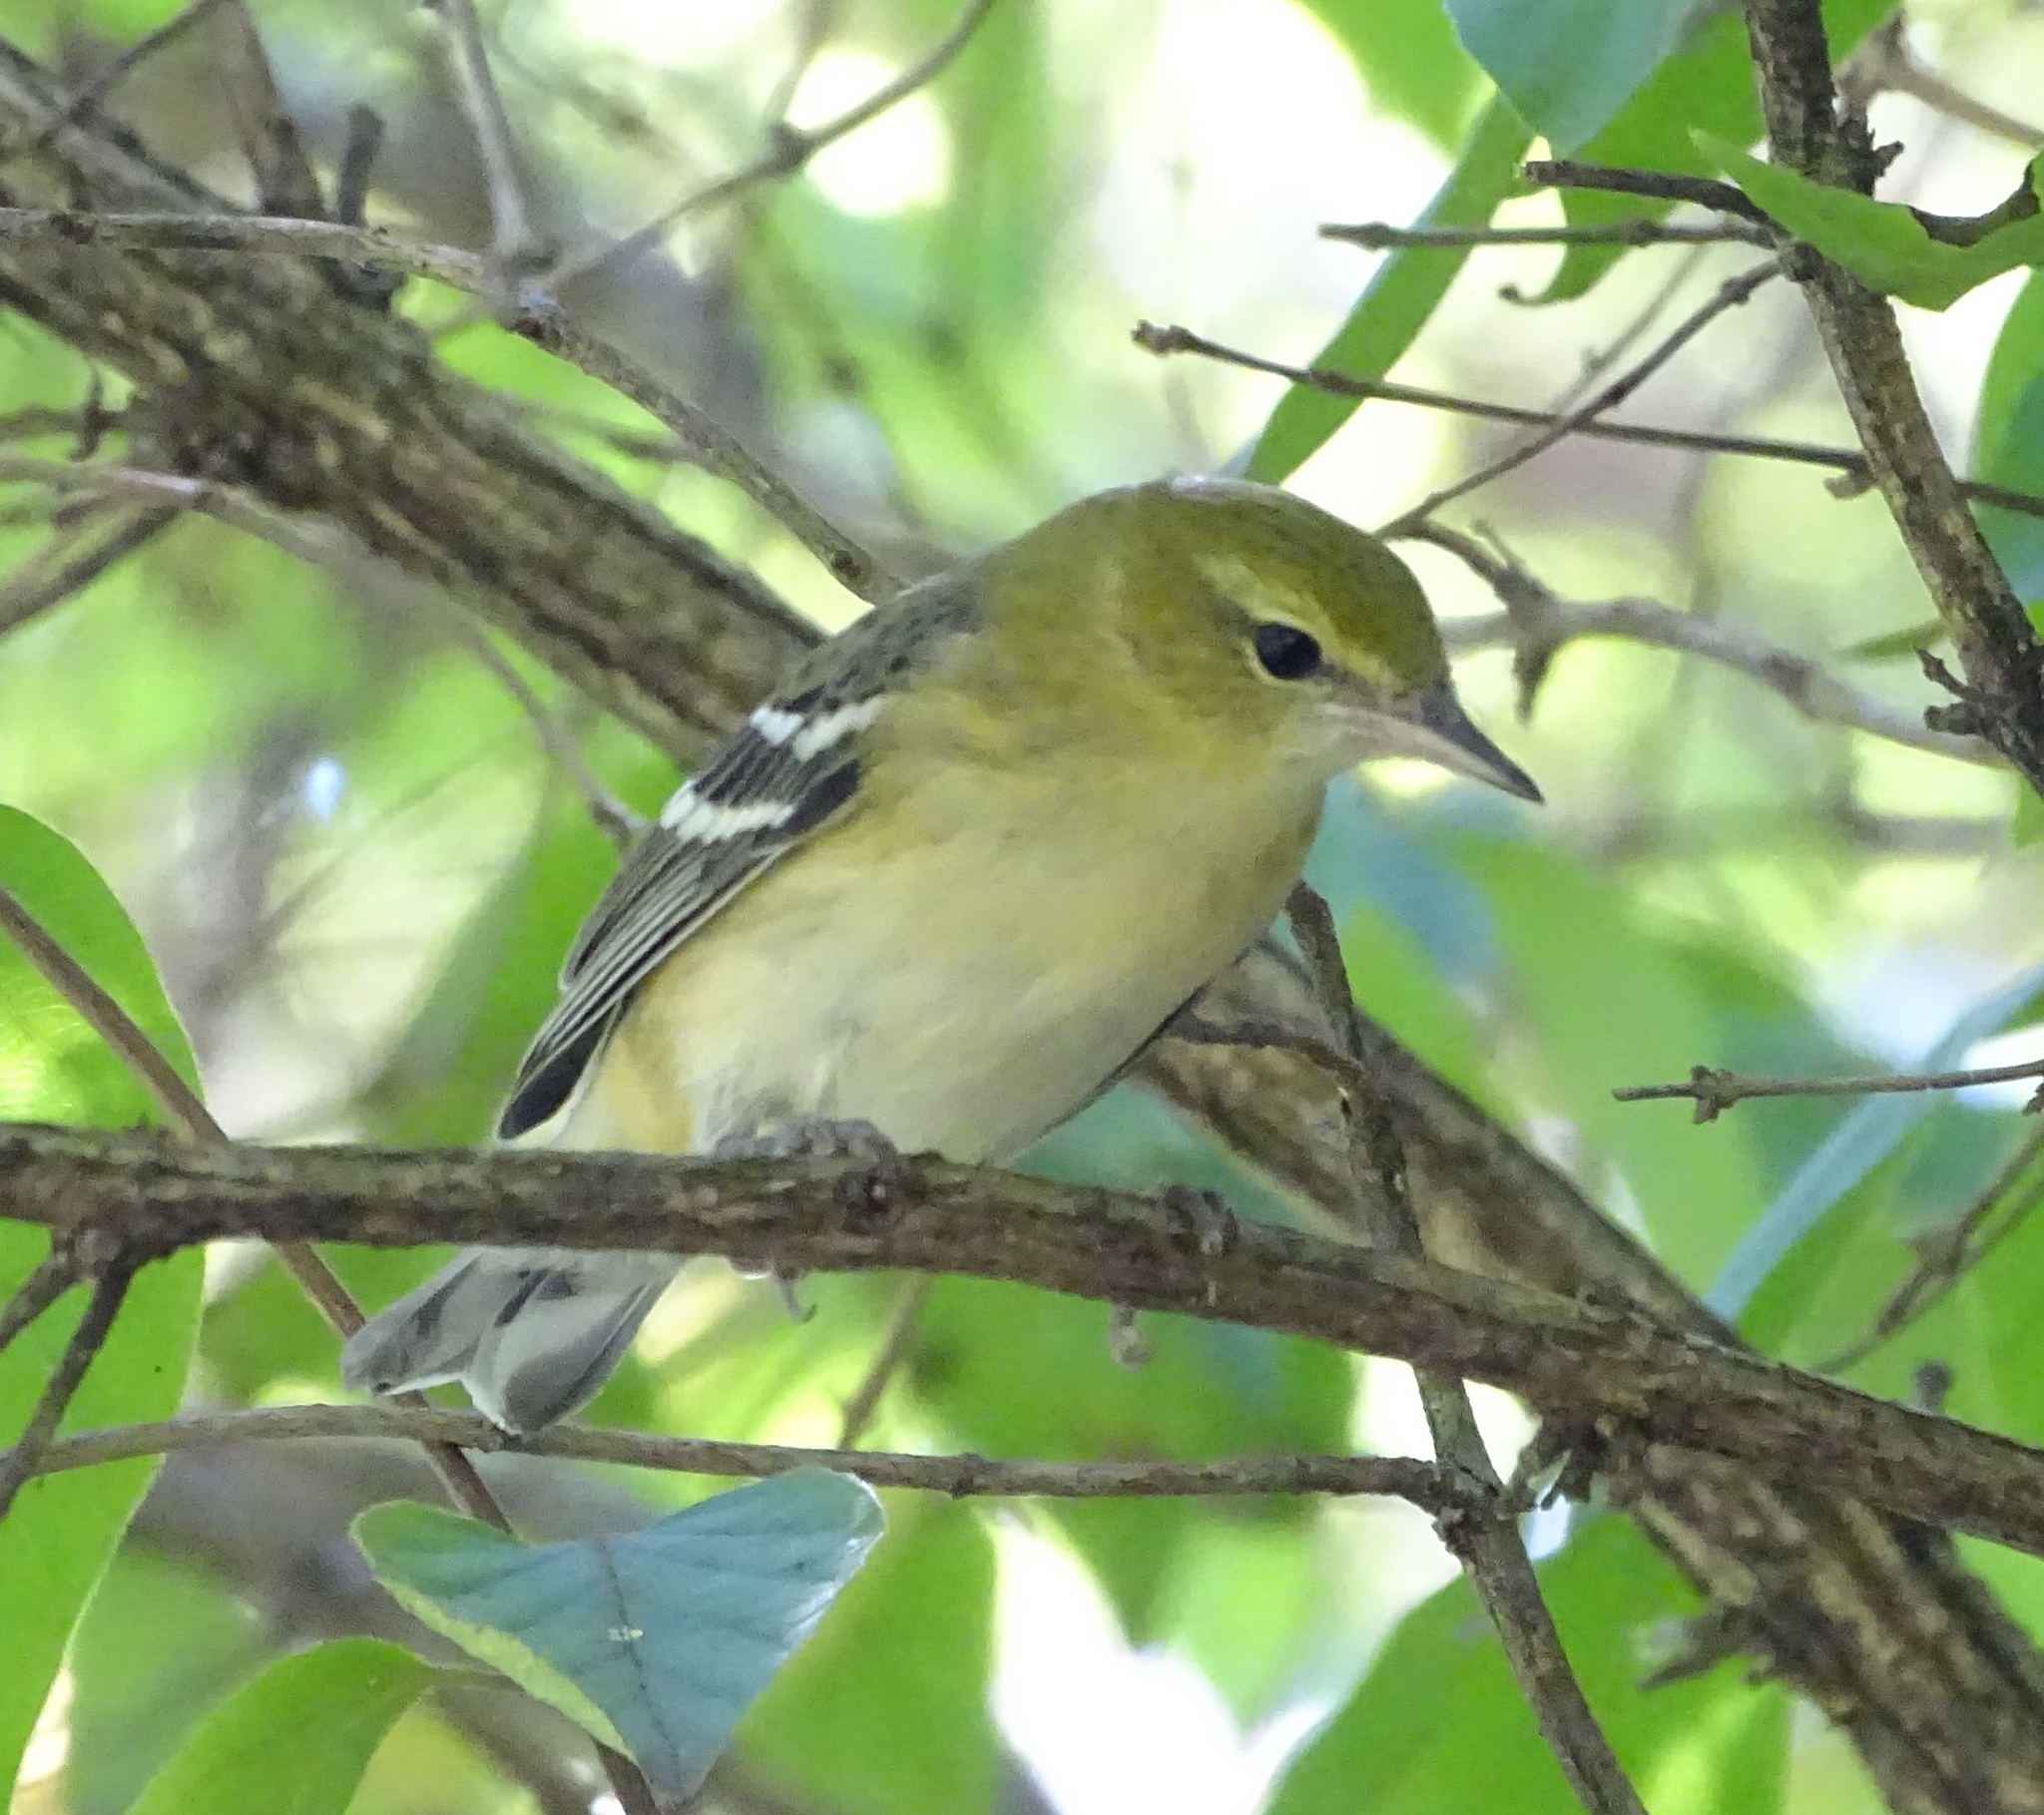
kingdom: Animalia
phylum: Chordata
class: Aves
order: Passeriformes
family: Parulidae
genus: Setophaga
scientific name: Setophaga castanea
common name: Bay-breasted warbler
